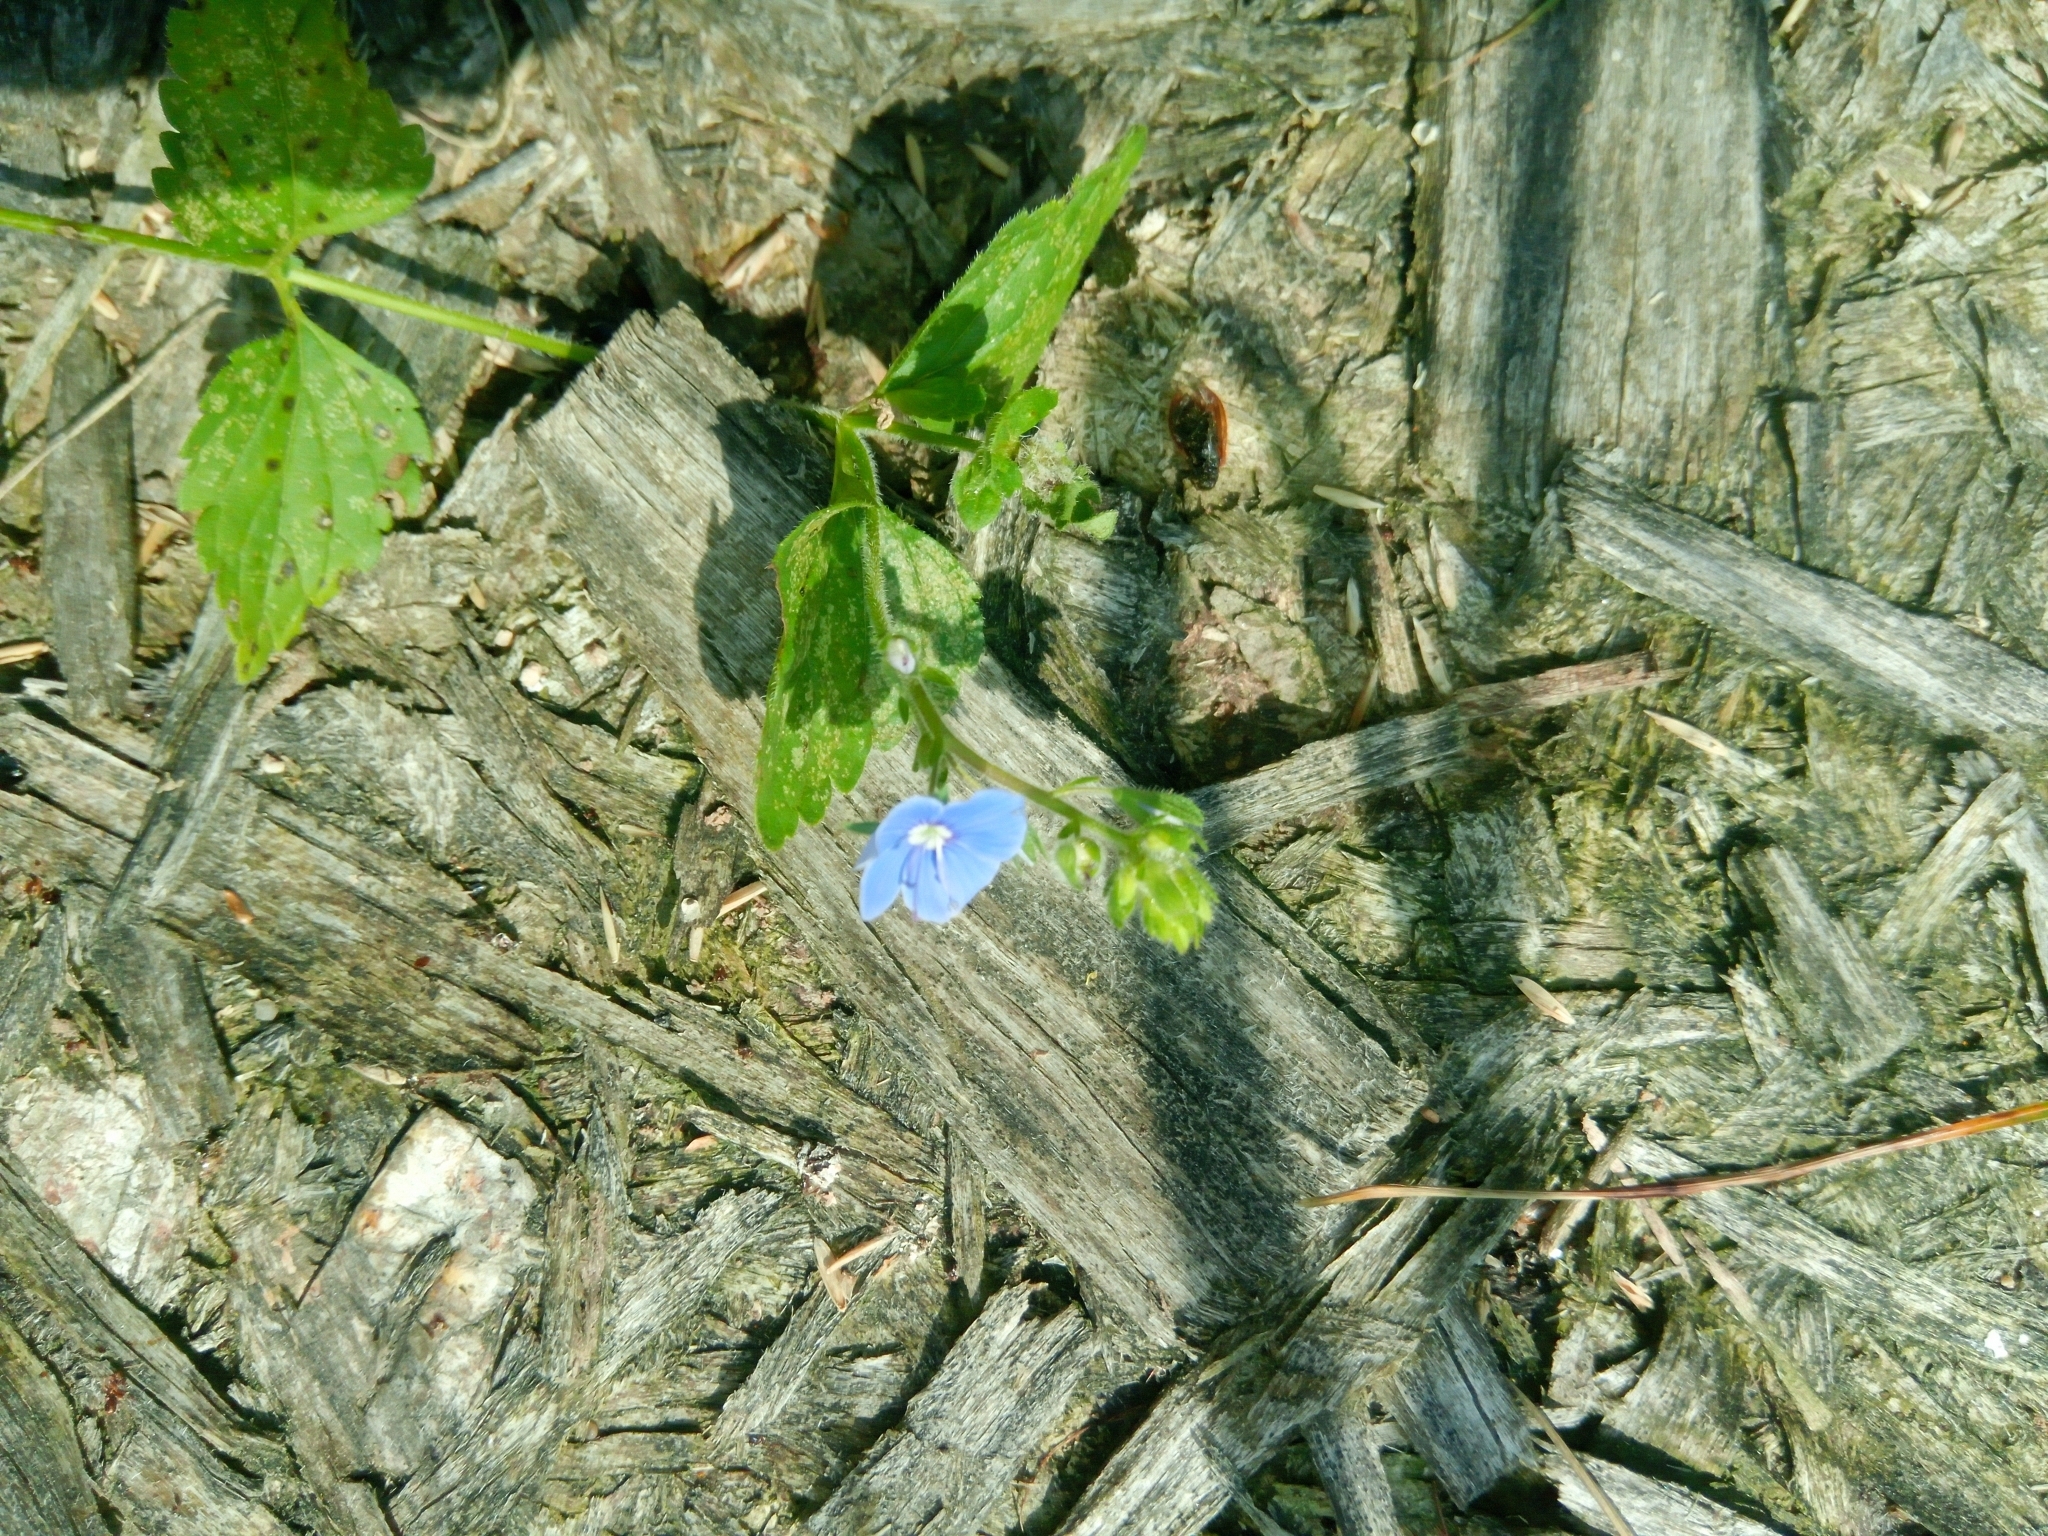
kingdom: Plantae
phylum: Tracheophyta
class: Magnoliopsida
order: Lamiales
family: Plantaginaceae
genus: Veronica
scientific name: Veronica chamaedrys
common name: Germander speedwell
